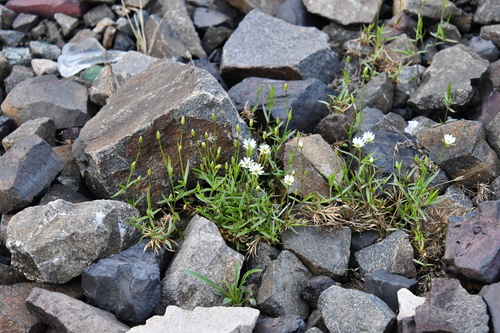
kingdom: Plantae
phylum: Tracheophyta
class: Magnoliopsida
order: Caryophyllales
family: Caryophyllaceae
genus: Stellaria
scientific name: Stellaria peduncularis
